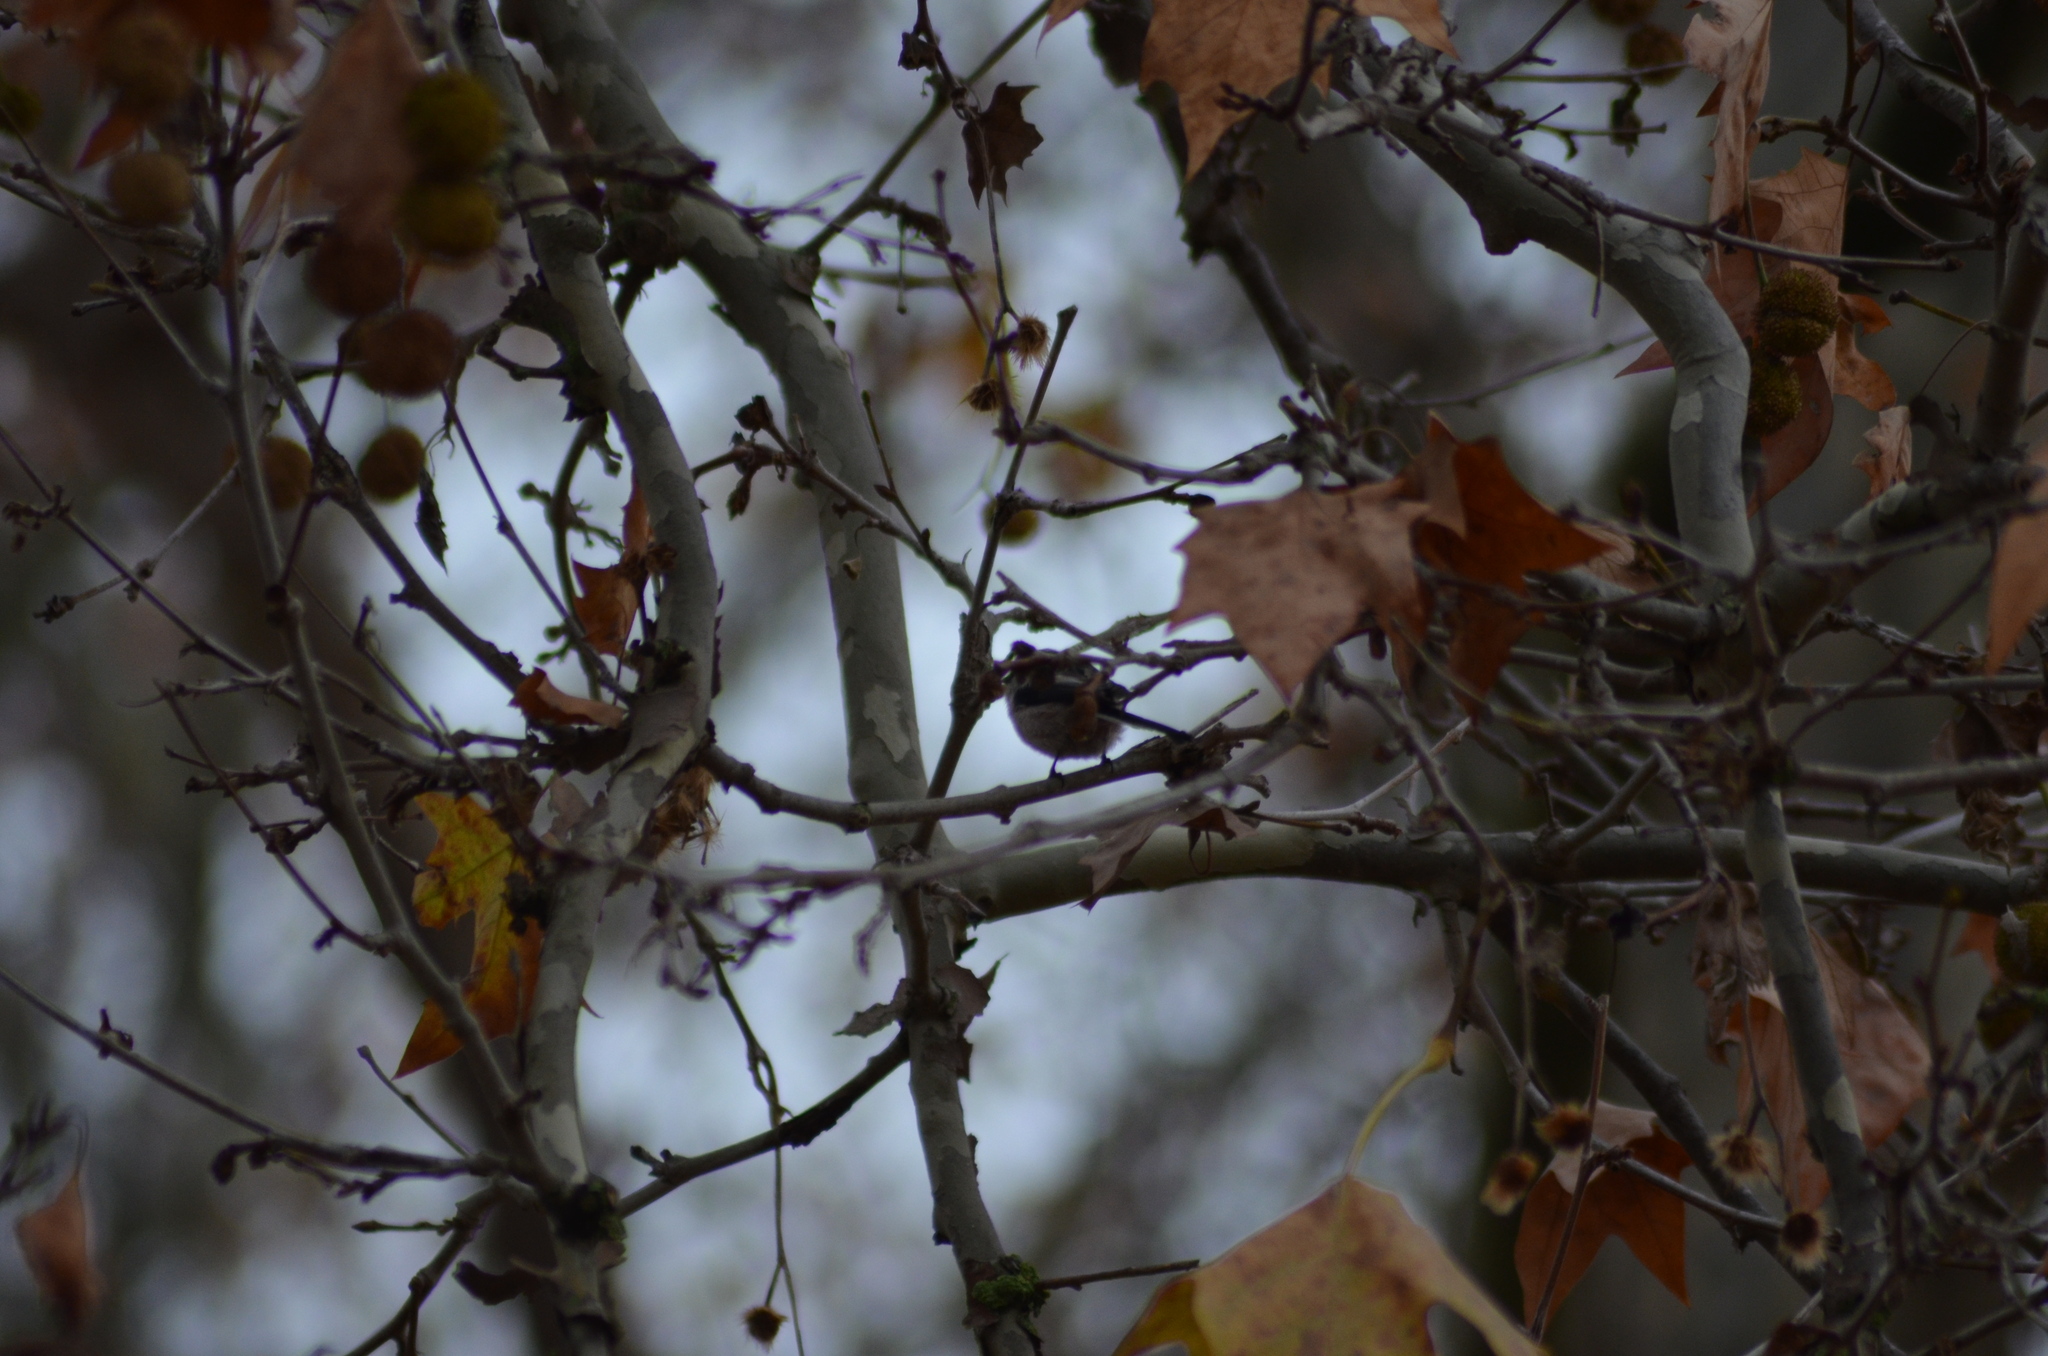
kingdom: Animalia
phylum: Chordata
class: Aves
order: Passeriformes
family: Aegithalidae
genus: Aegithalos
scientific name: Aegithalos caudatus
